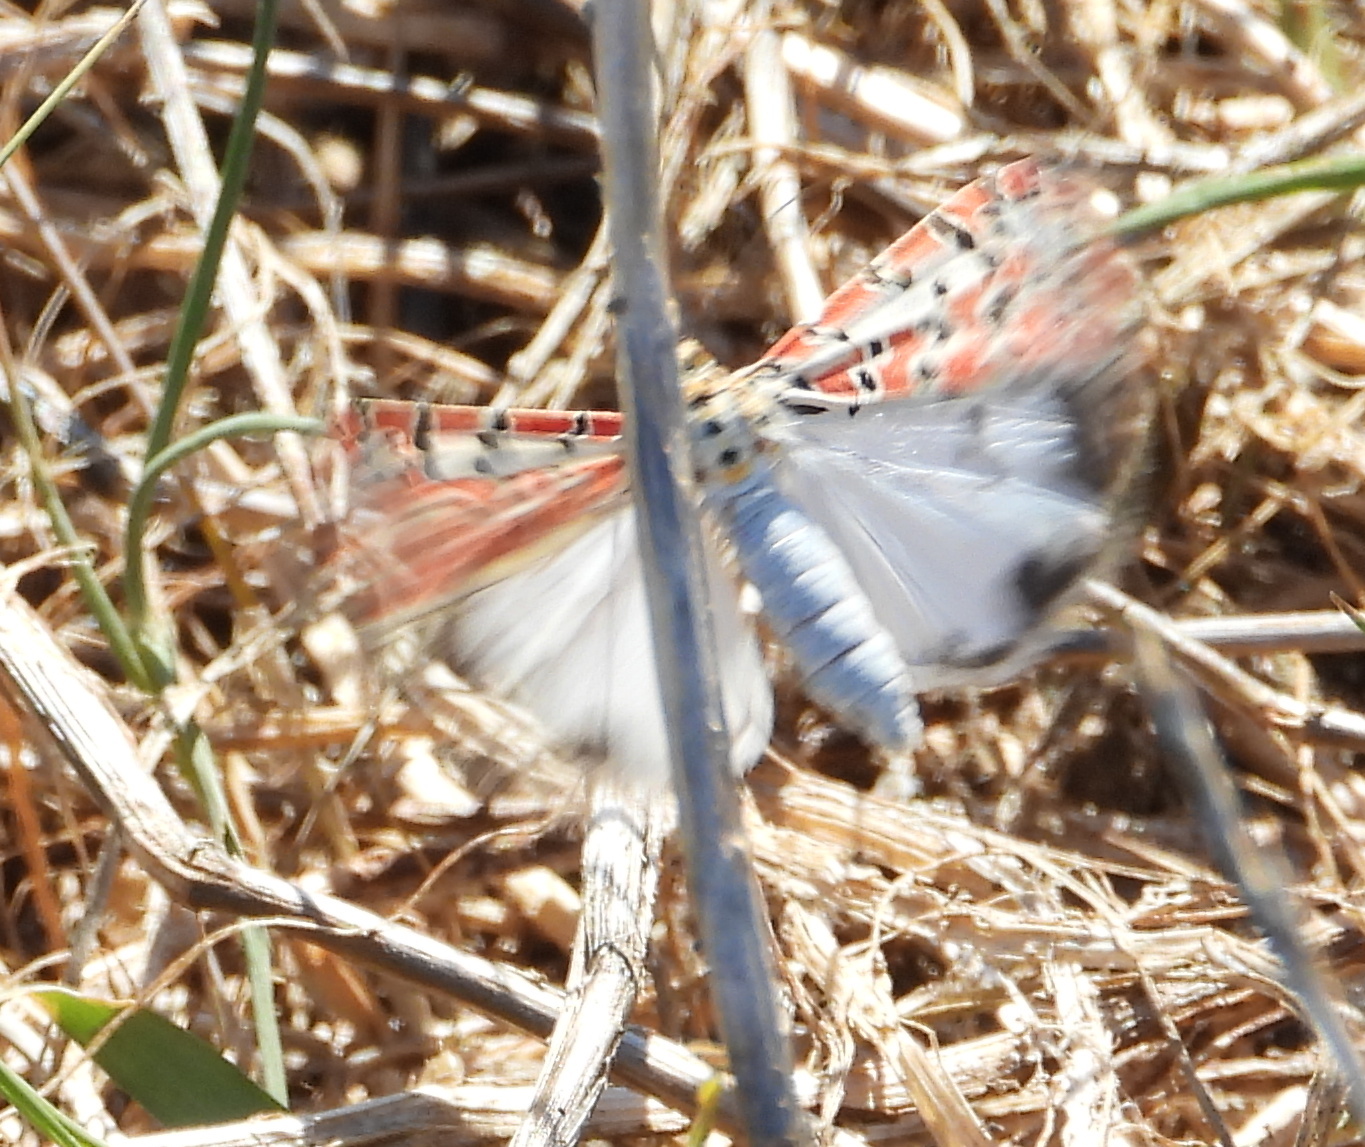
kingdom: Animalia
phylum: Arthropoda
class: Insecta
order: Lepidoptera
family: Erebidae
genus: Utetheisa
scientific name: Utetheisa pulchella
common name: Crimson speckled
